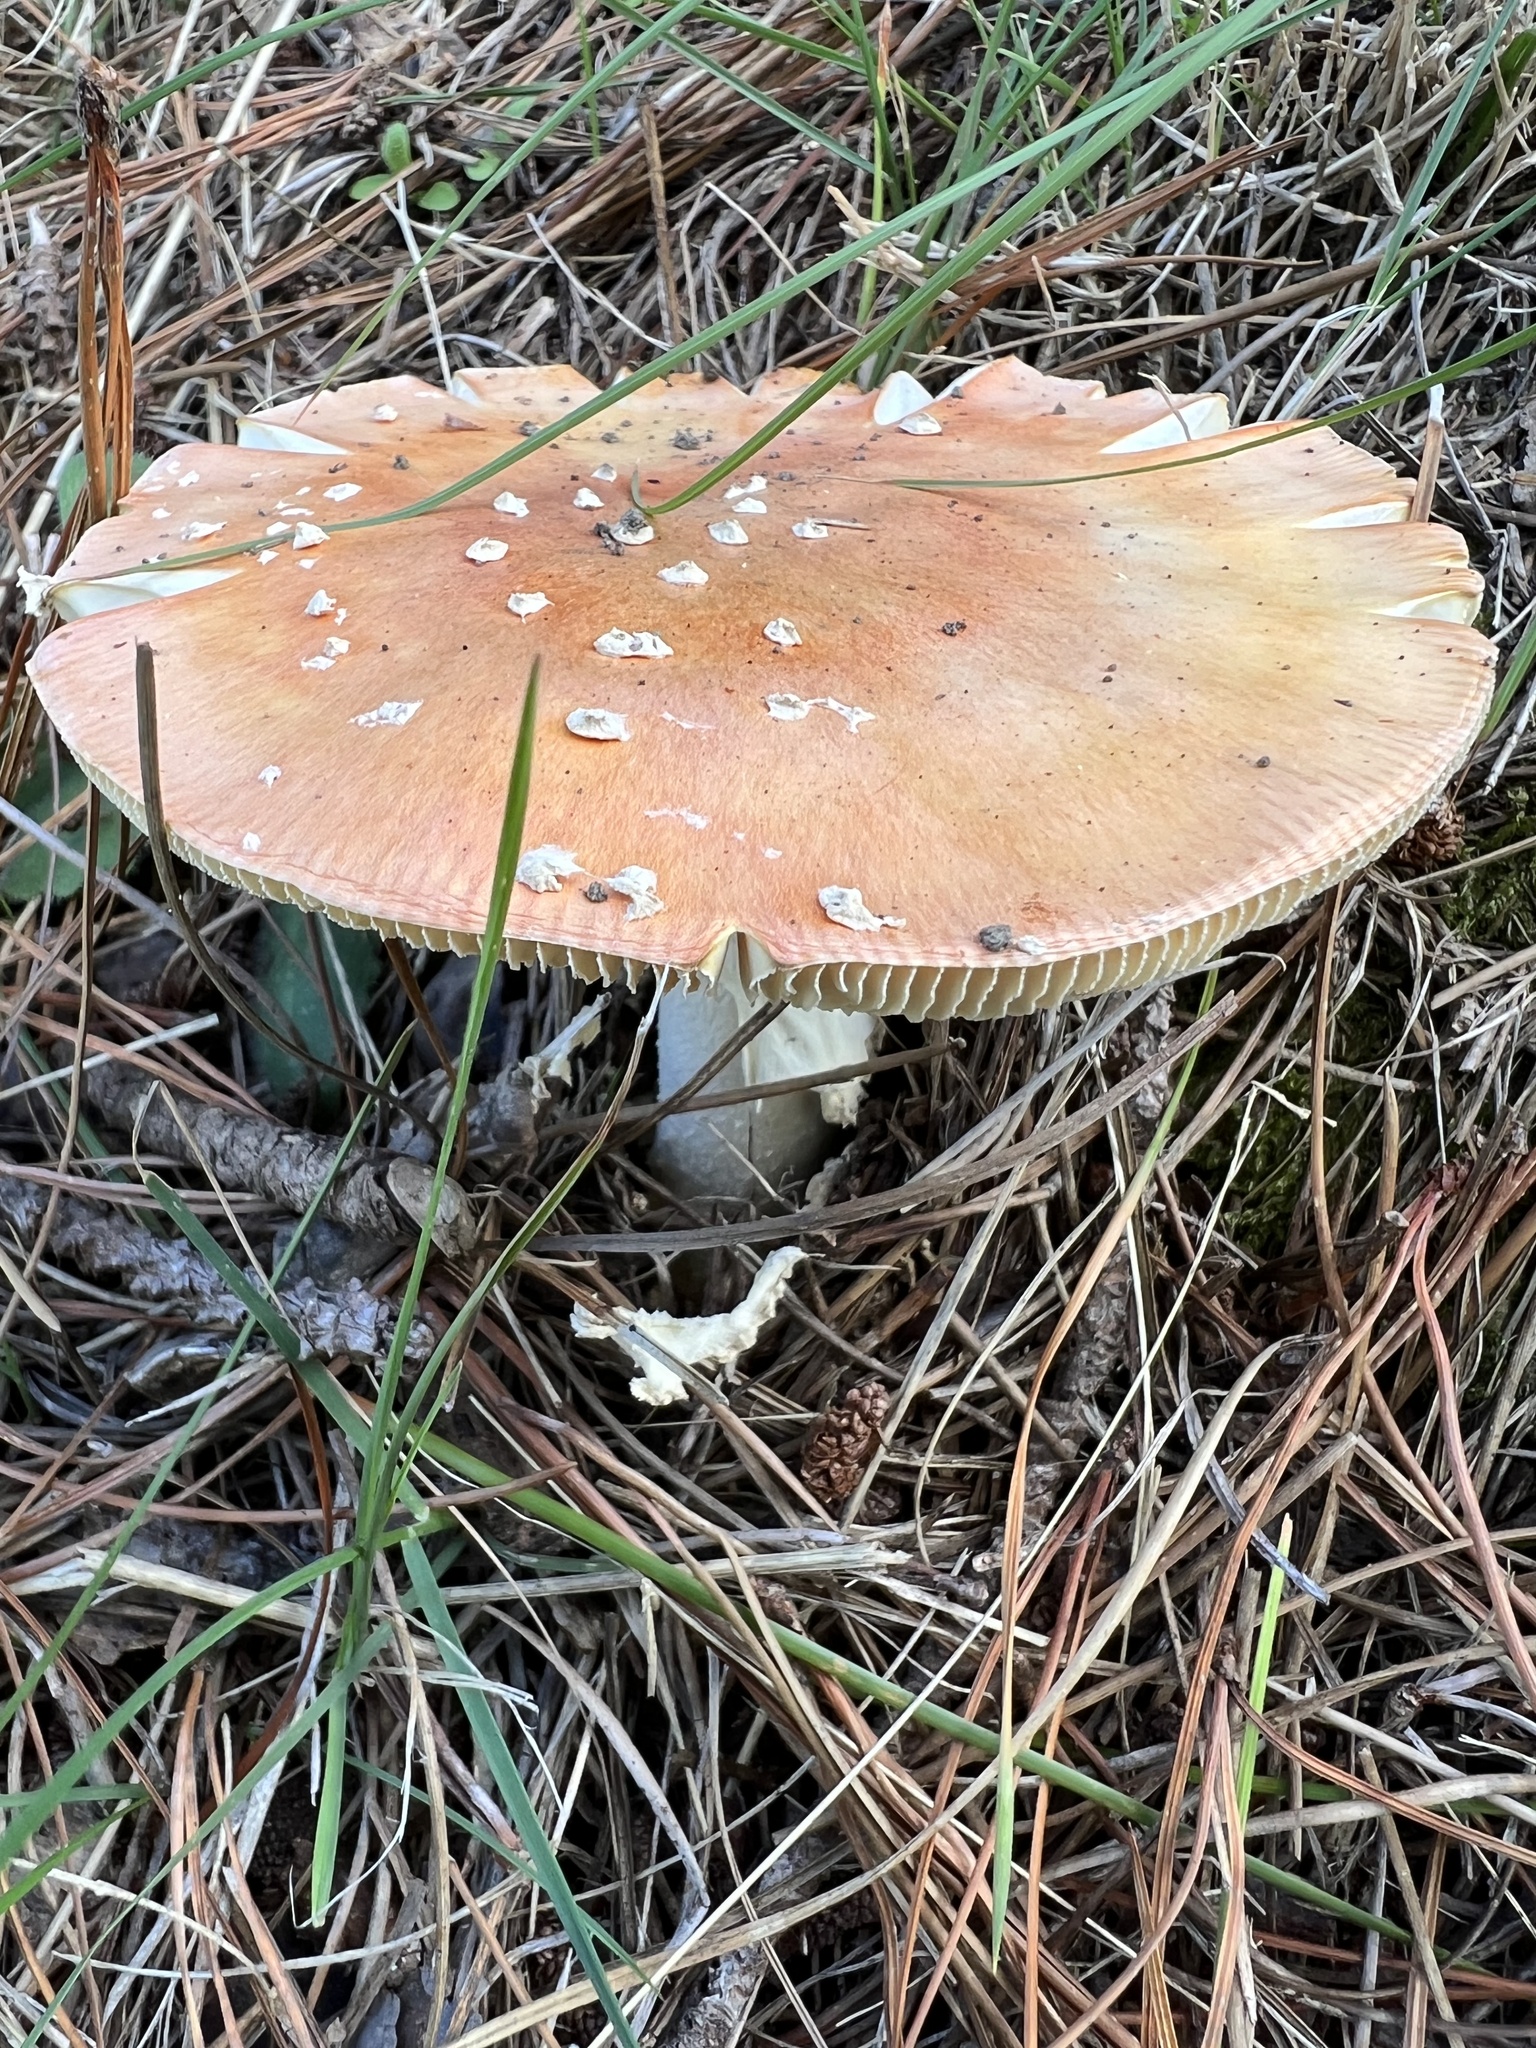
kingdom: Fungi
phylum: Basidiomycota
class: Agaricomycetes
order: Agaricales
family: Amanitaceae
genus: Amanita
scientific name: Amanita muscaria
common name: Fly agaric
